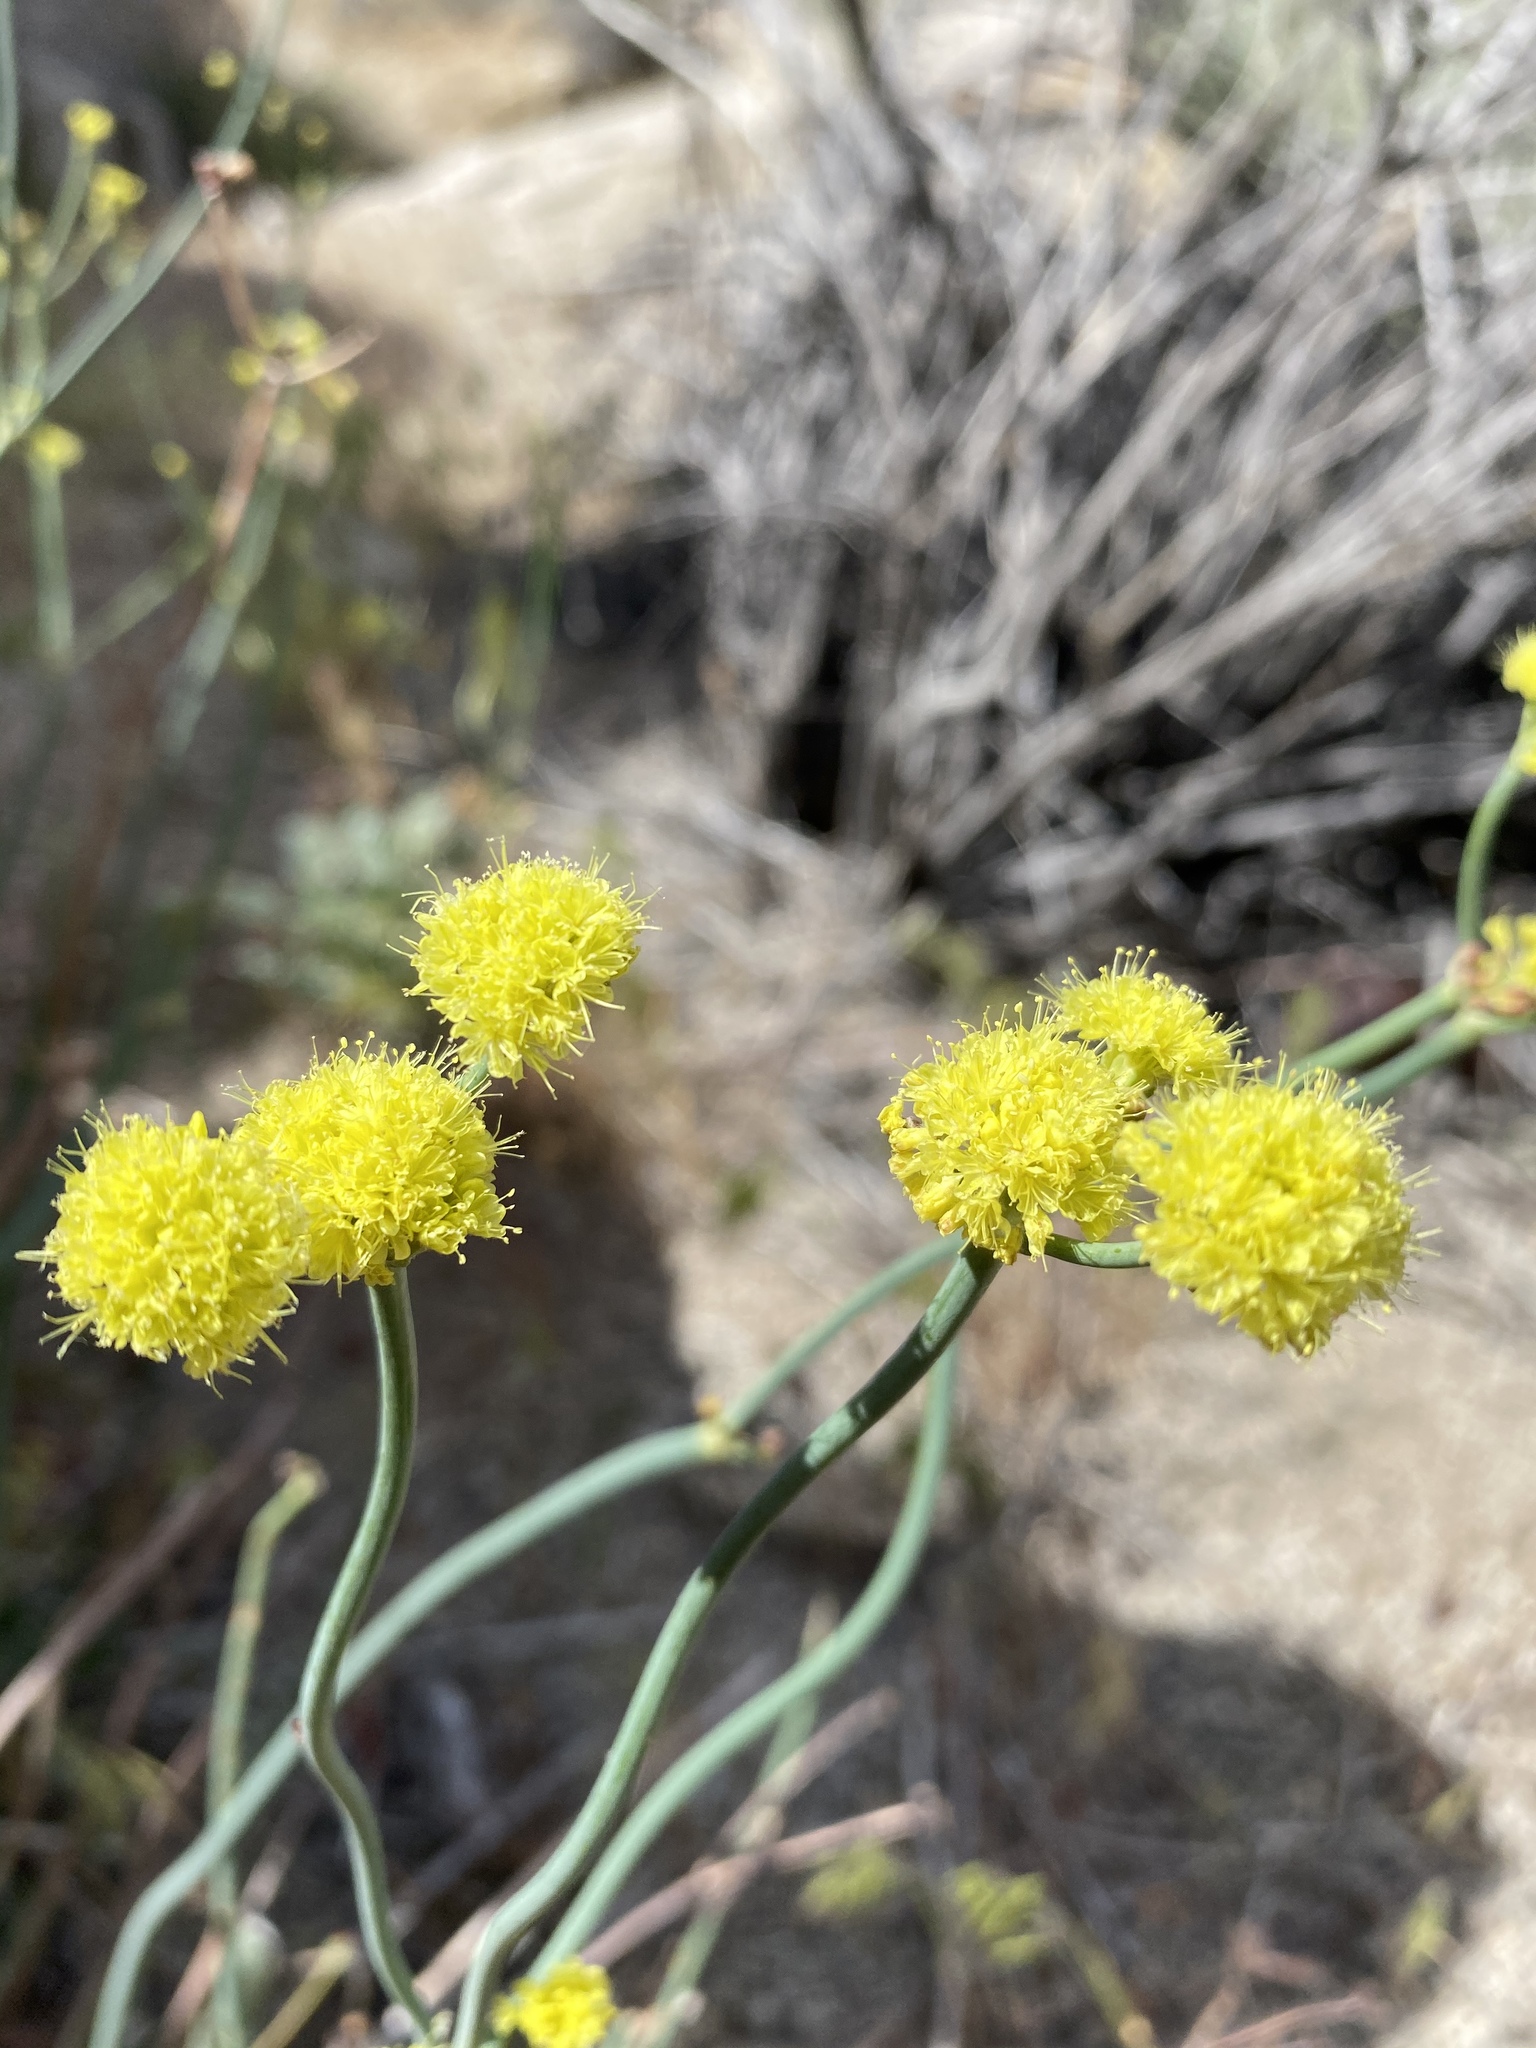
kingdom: Plantae
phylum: Tracheophyta
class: Magnoliopsida
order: Caryophyllales
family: Polygonaceae
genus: Eriogonum
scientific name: Eriogonum nudum
